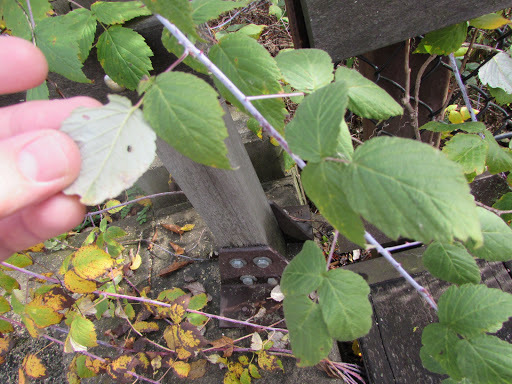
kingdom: Plantae
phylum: Tracheophyta
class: Magnoliopsida
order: Rosales
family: Rosaceae
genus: Rubus
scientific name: Rubus occidentalis
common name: Black raspberry
